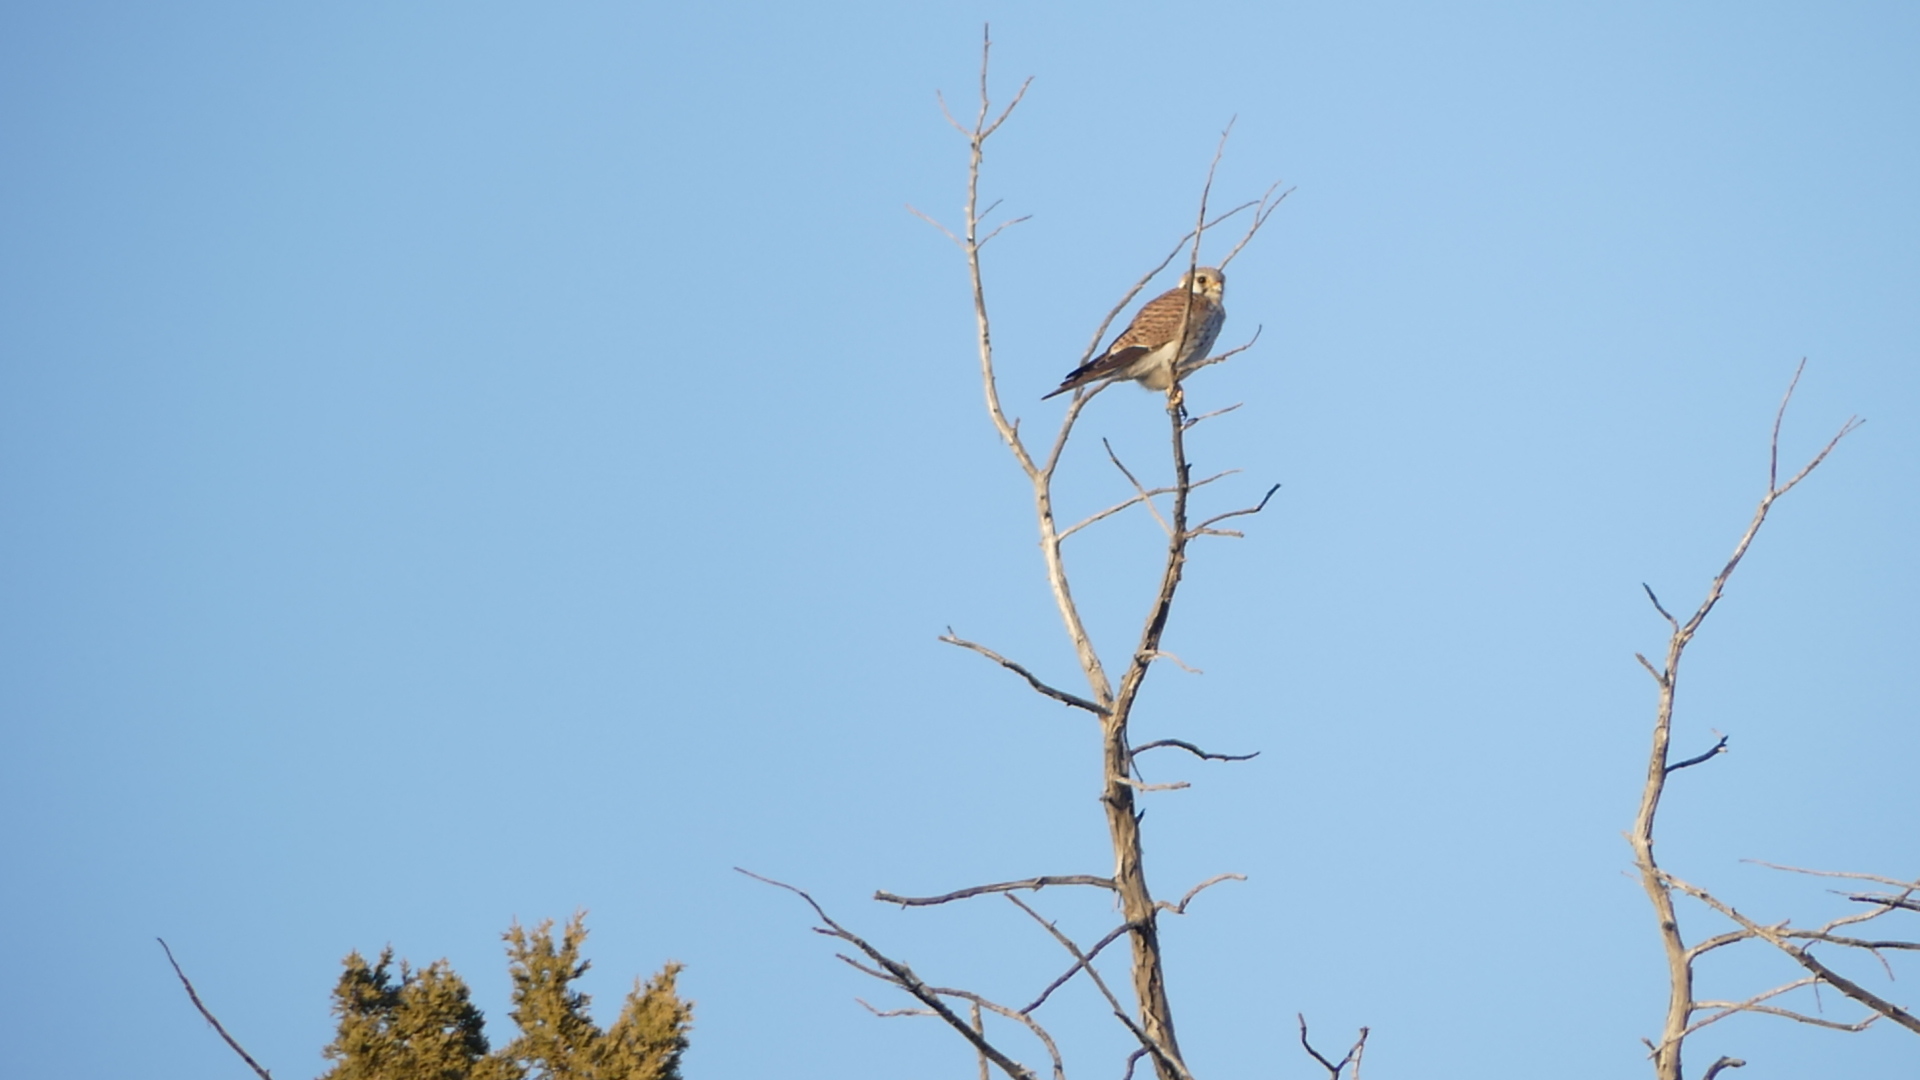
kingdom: Animalia
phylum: Chordata
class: Aves
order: Falconiformes
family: Falconidae
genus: Falco
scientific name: Falco sparverius
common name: American kestrel
